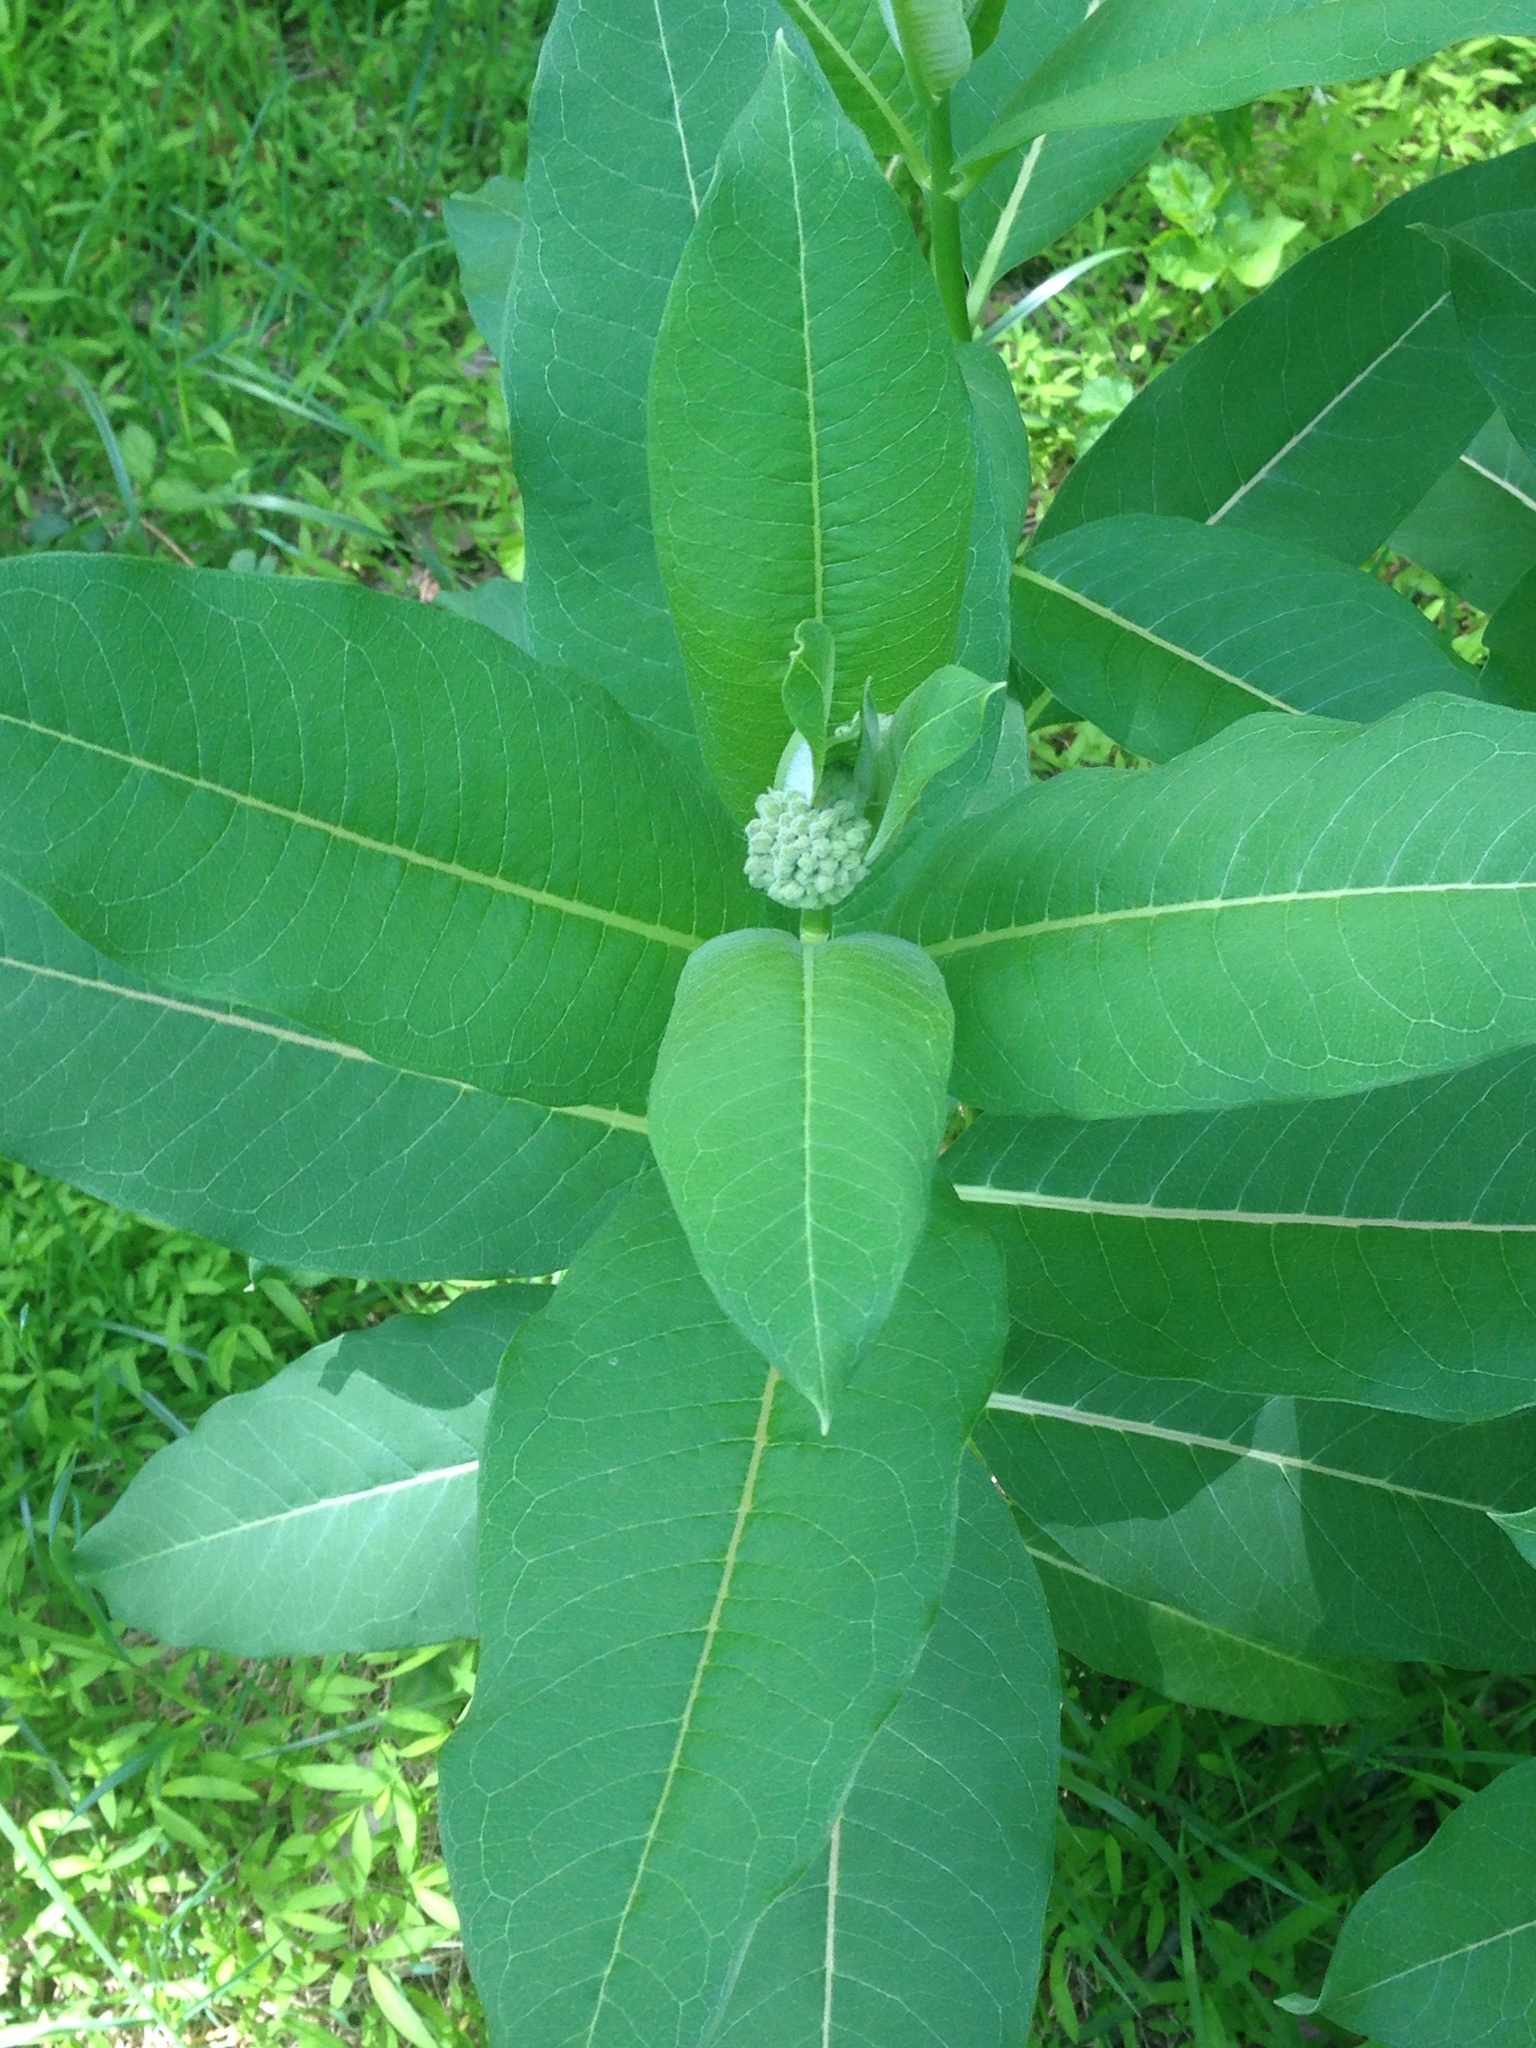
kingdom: Plantae
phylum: Tracheophyta
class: Magnoliopsida
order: Gentianales
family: Apocynaceae
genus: Asclepias
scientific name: Asclepias syriaca
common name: Common milkweed
